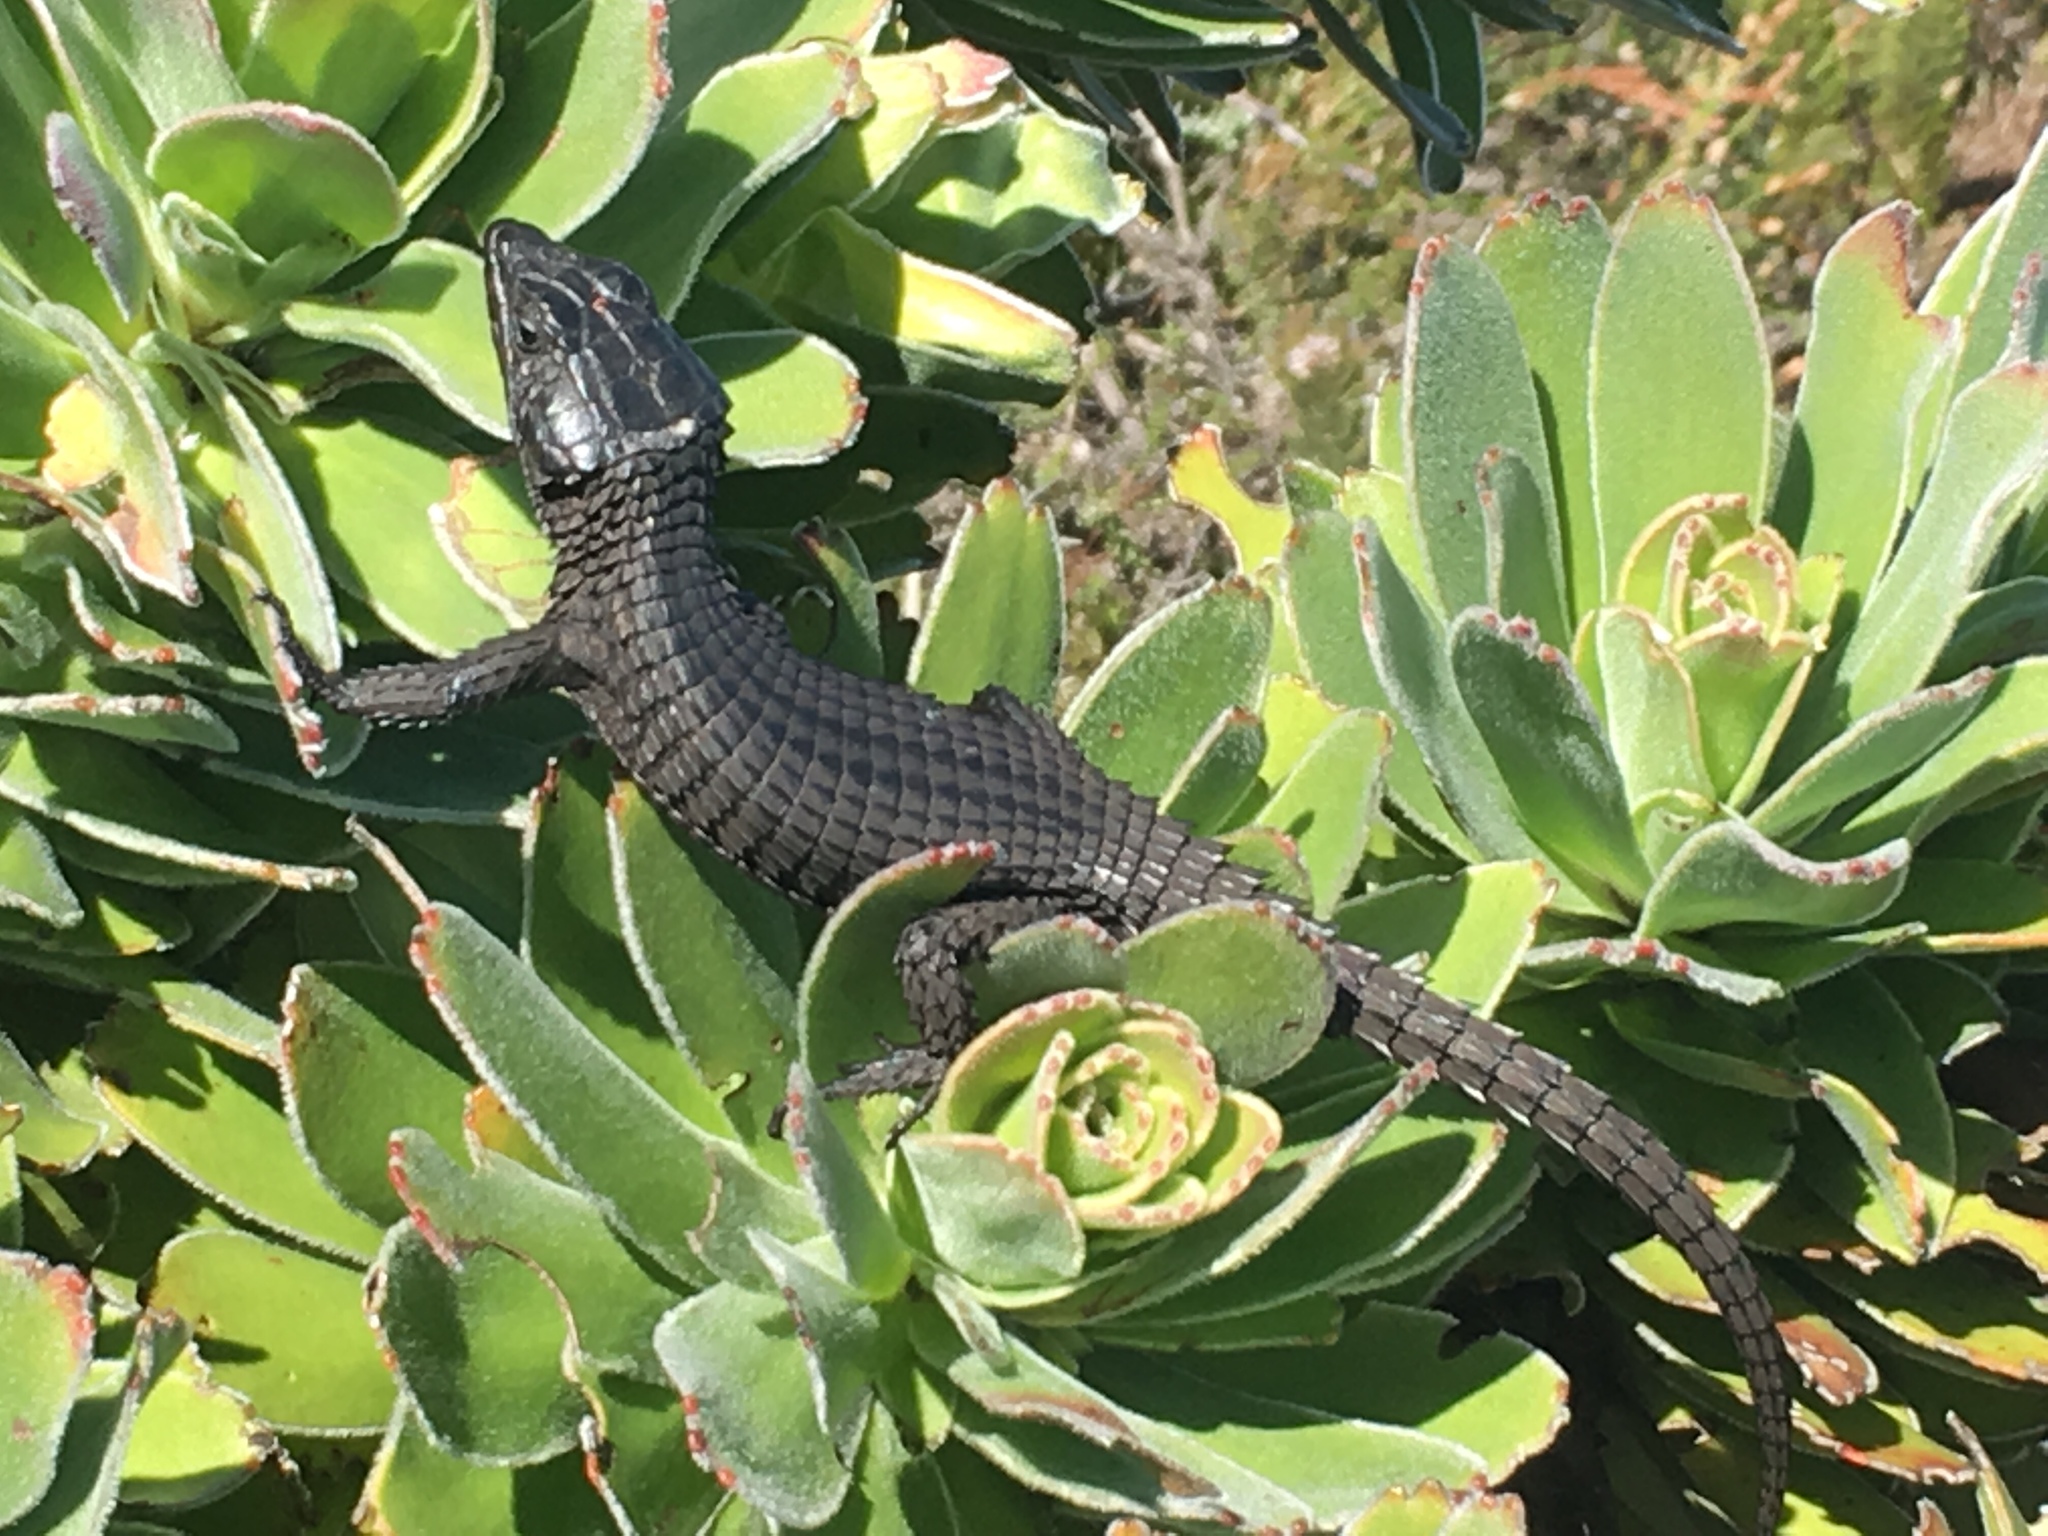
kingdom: Animalia
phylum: Chordata
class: Squamata
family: Cordylidae
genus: Cordylus
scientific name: Cordylus niger
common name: Black girdled lizard
